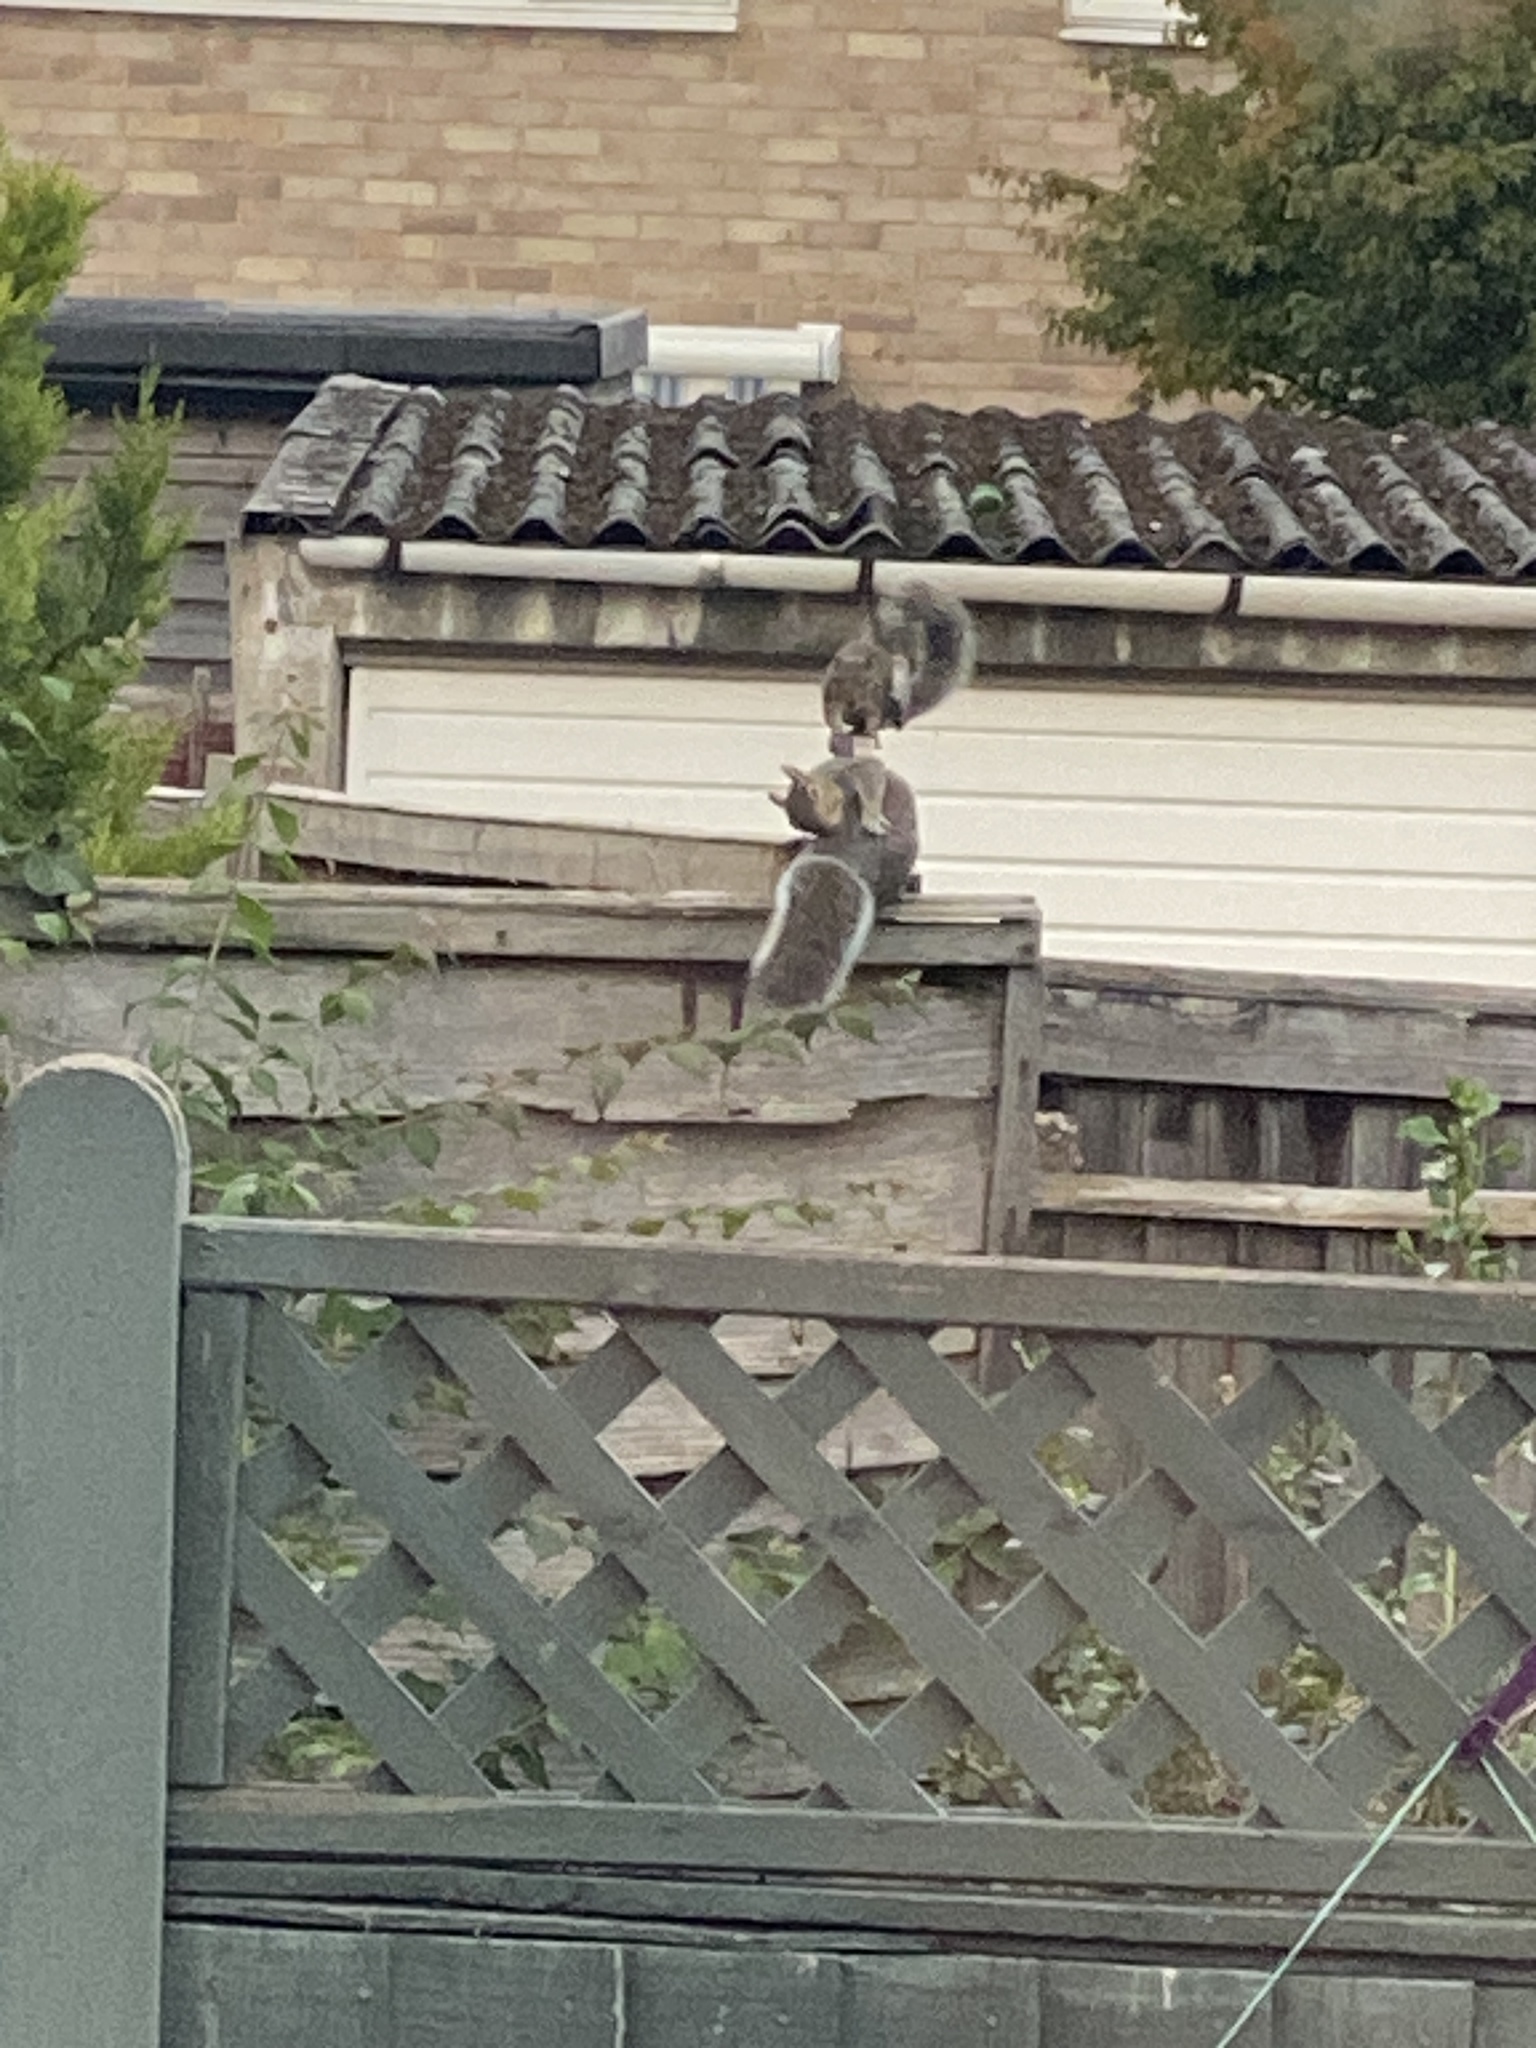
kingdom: Animalia
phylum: Chordata
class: Mammalia
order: Rodentia
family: Sciuridae
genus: Sciurus
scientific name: Sciurus carolinensis
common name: Eastern gray squirrel
